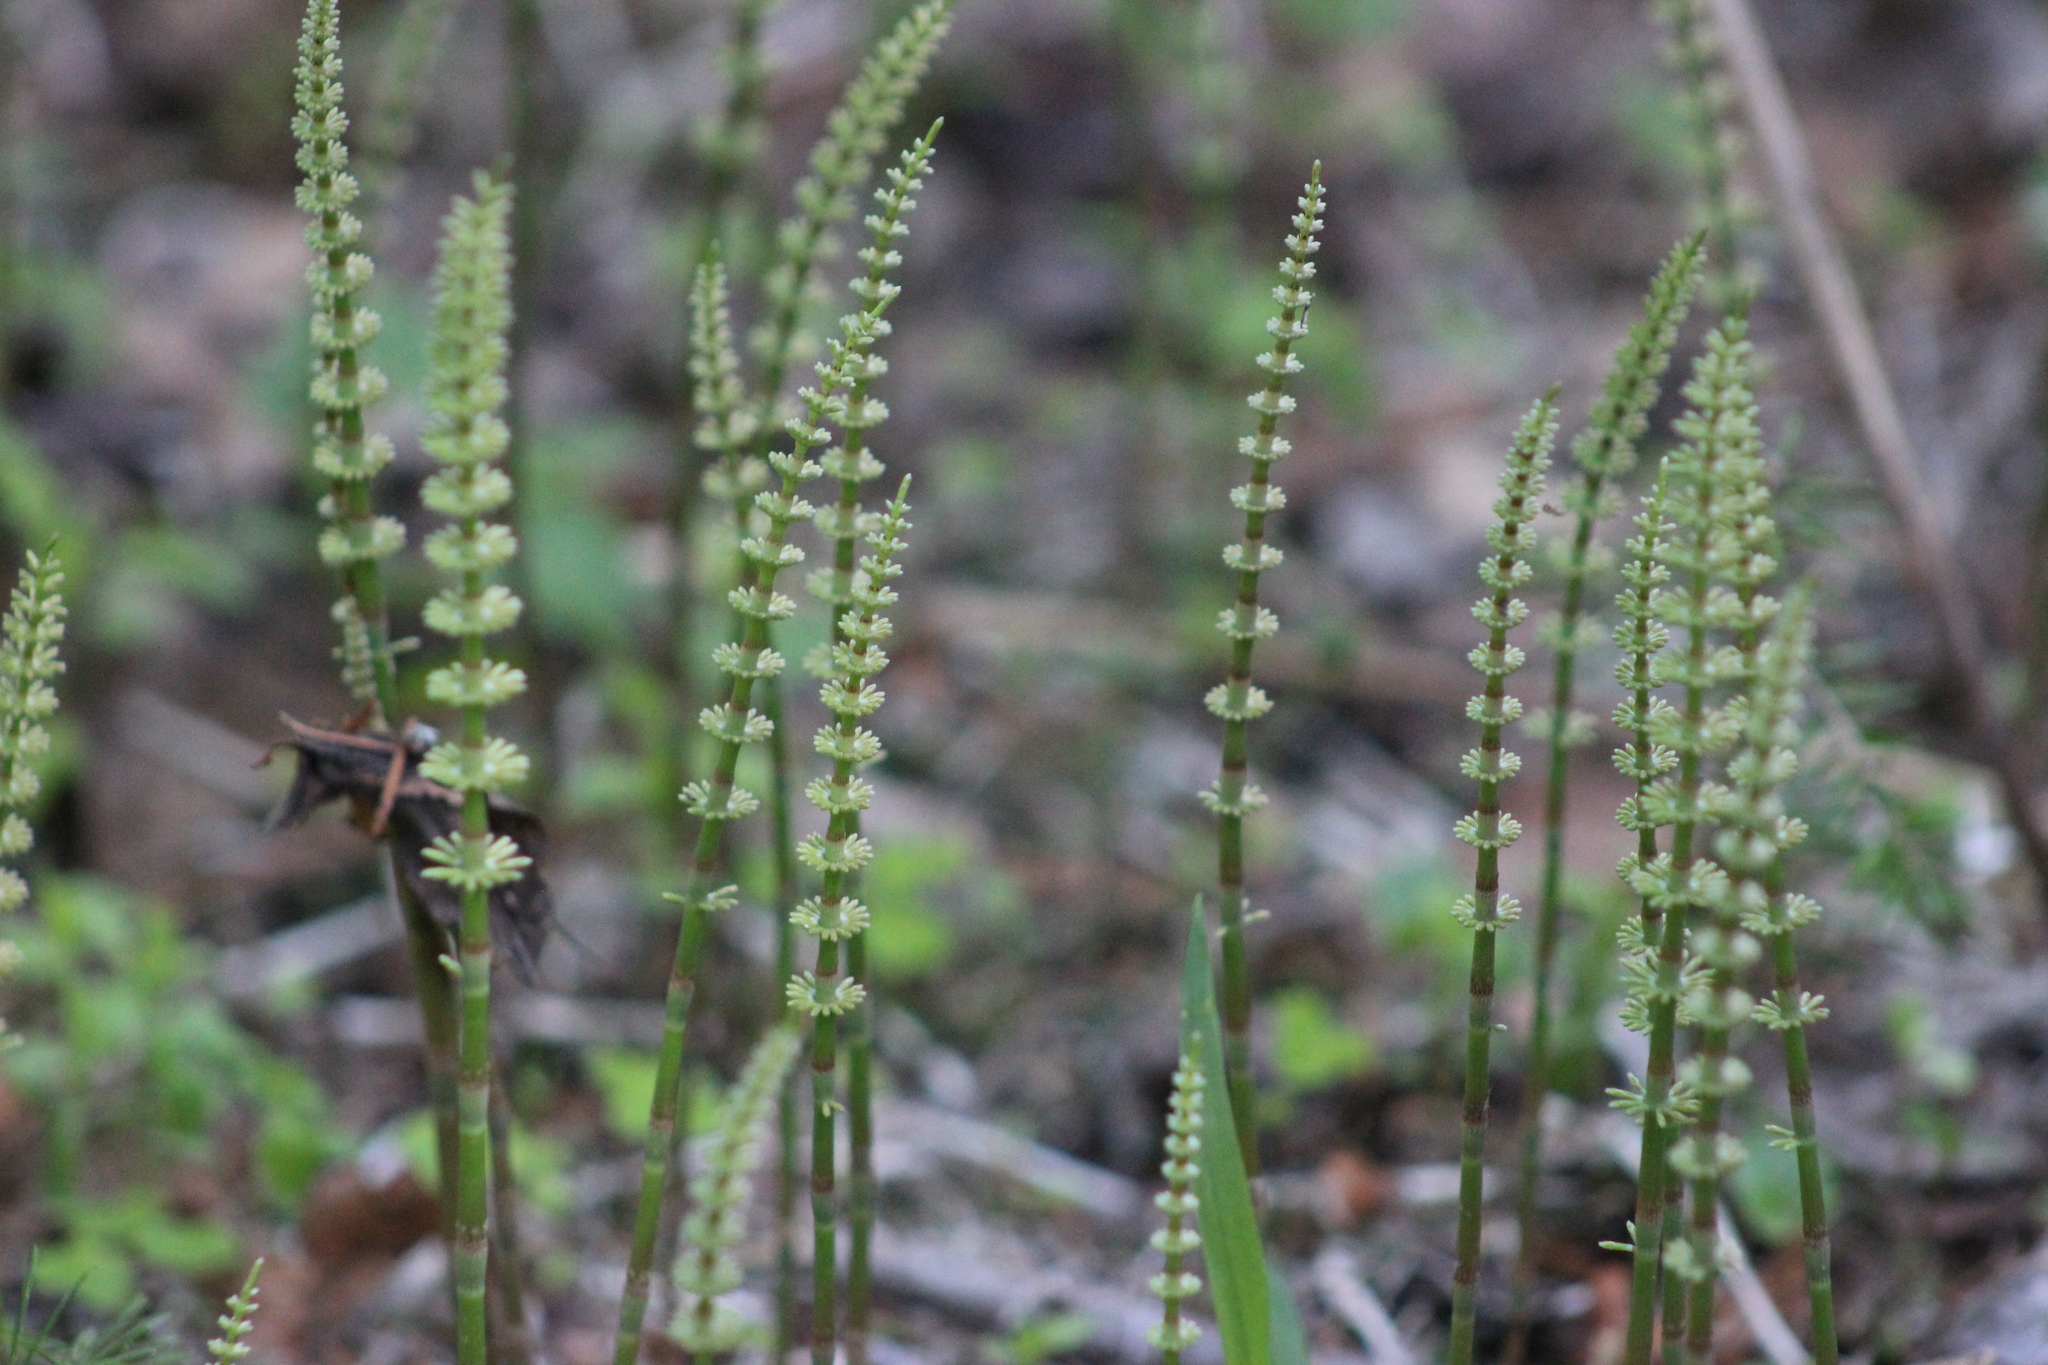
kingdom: Plantae
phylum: Tracheophyta
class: Polypodiopsida
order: Equisetales
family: Equisetaceae
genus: Equisetum
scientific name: Equisetum pratense
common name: Meadow horsetail
